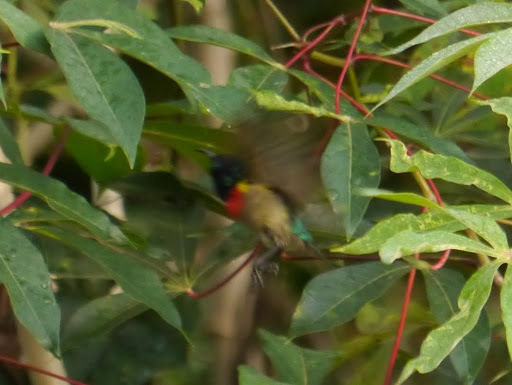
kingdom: Animalia
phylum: Chordata
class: Aves
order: Passeriformes
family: Nectariniidae
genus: Cinnyris
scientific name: Cinnyris minullus
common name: Tiny sunbird
